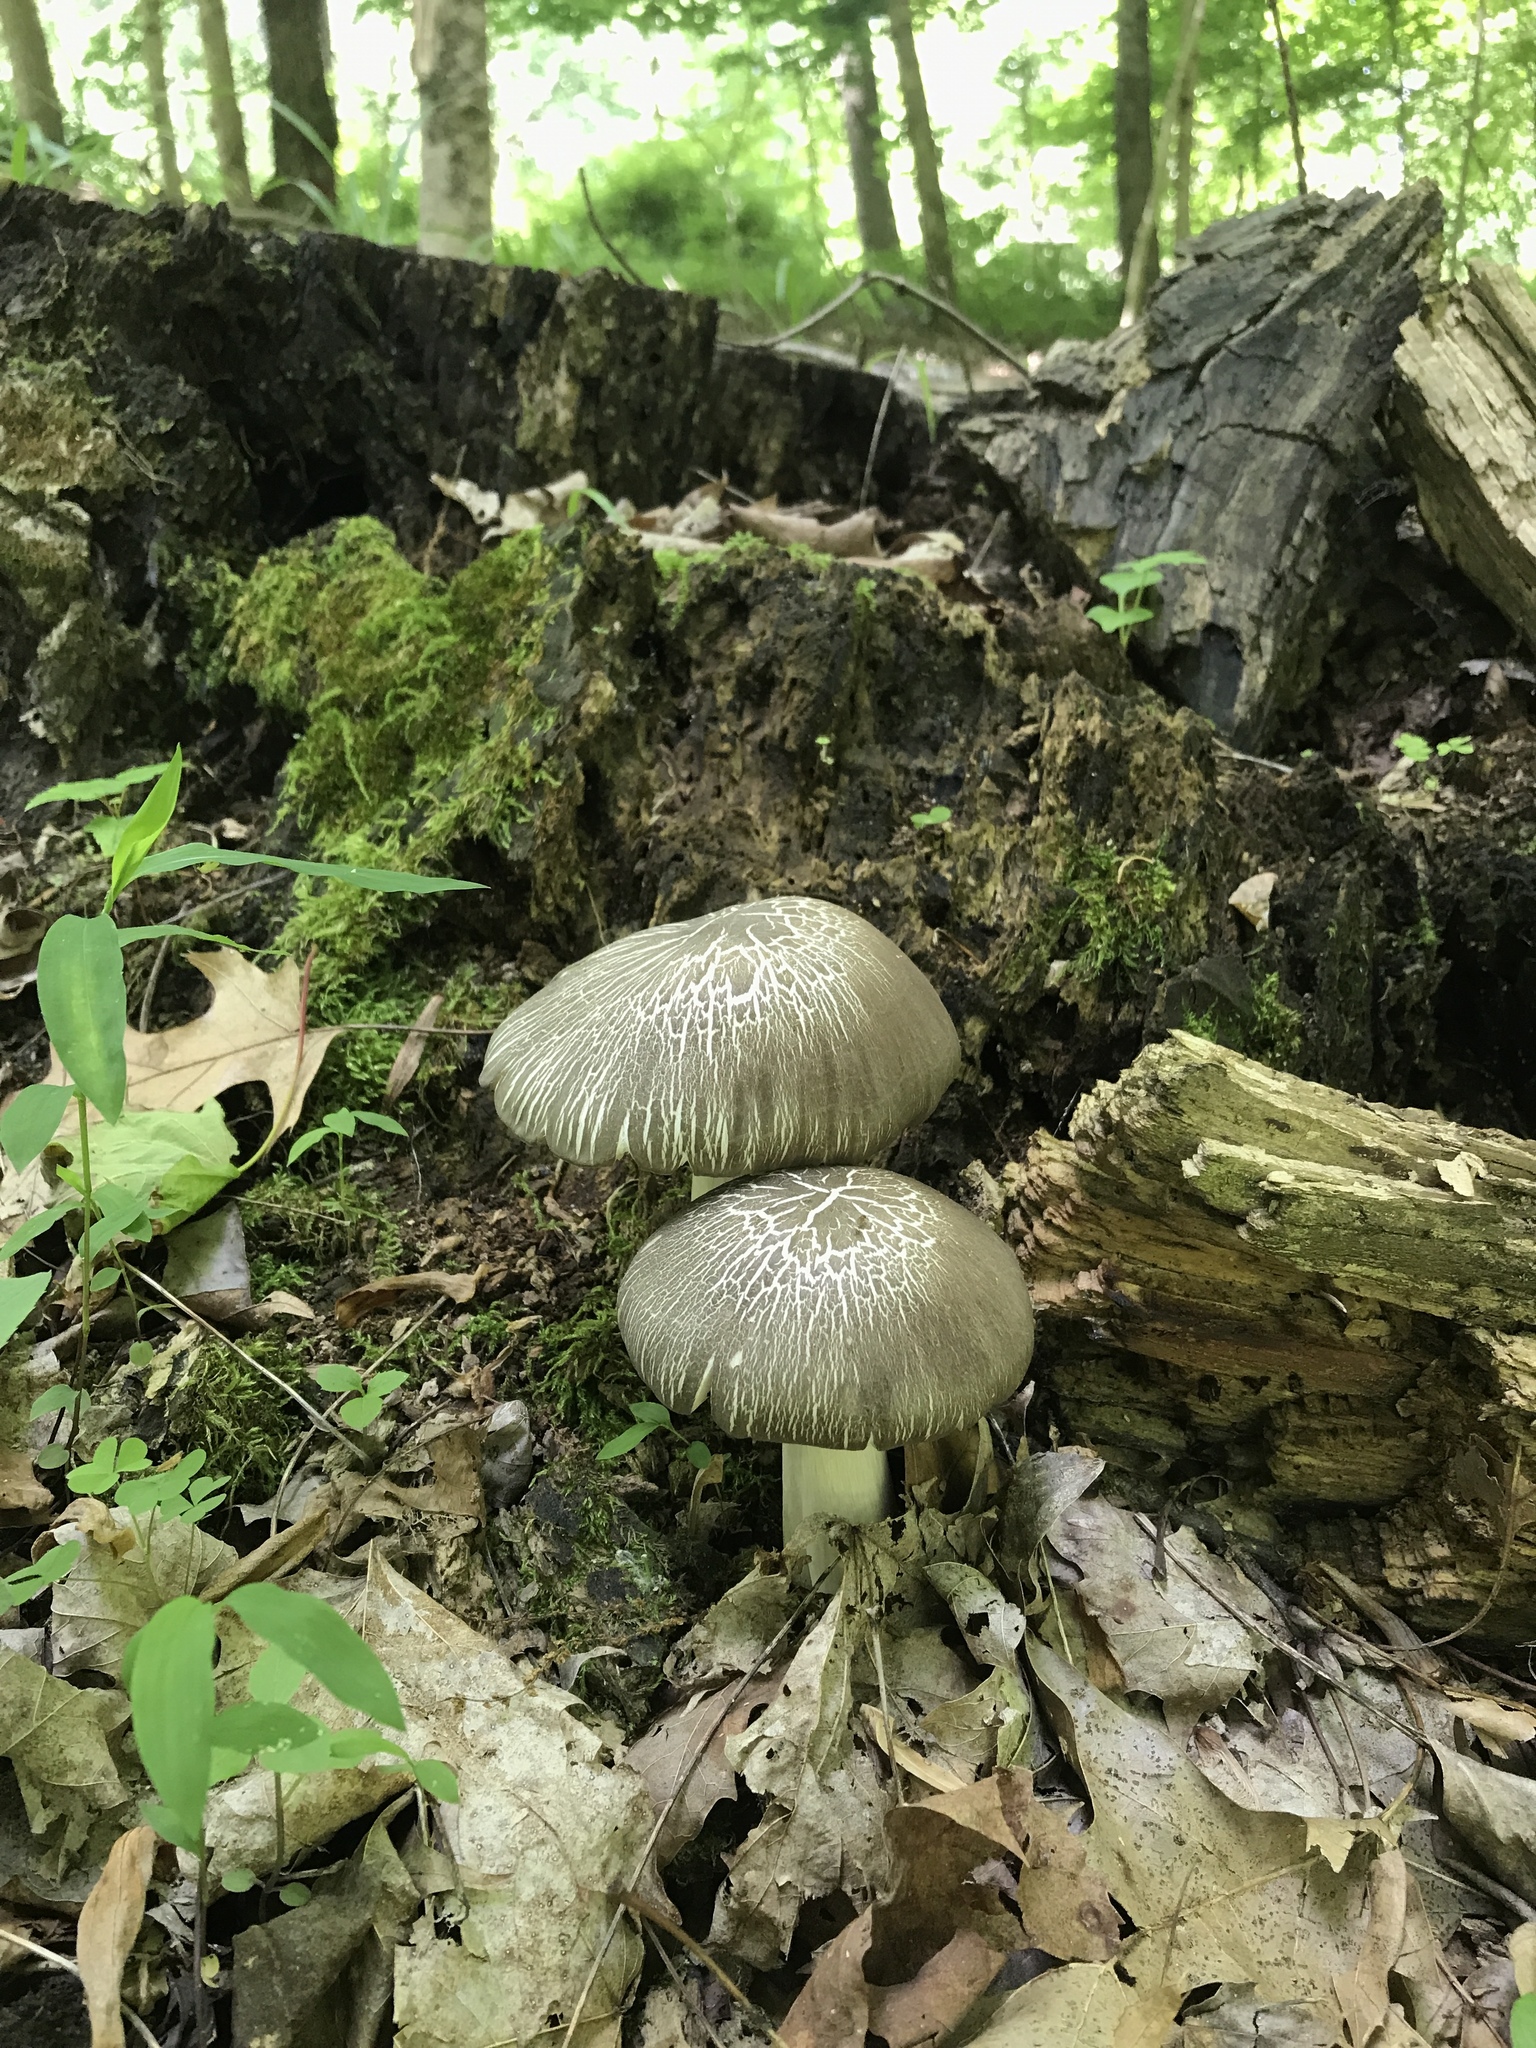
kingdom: Fungi
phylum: Basidiomycota
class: Agaricomycetes
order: Agaricales
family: Tricholomataceae
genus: Megacollybia
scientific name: Megacollybia rodmanii
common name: Eastern american platterful mushroom
